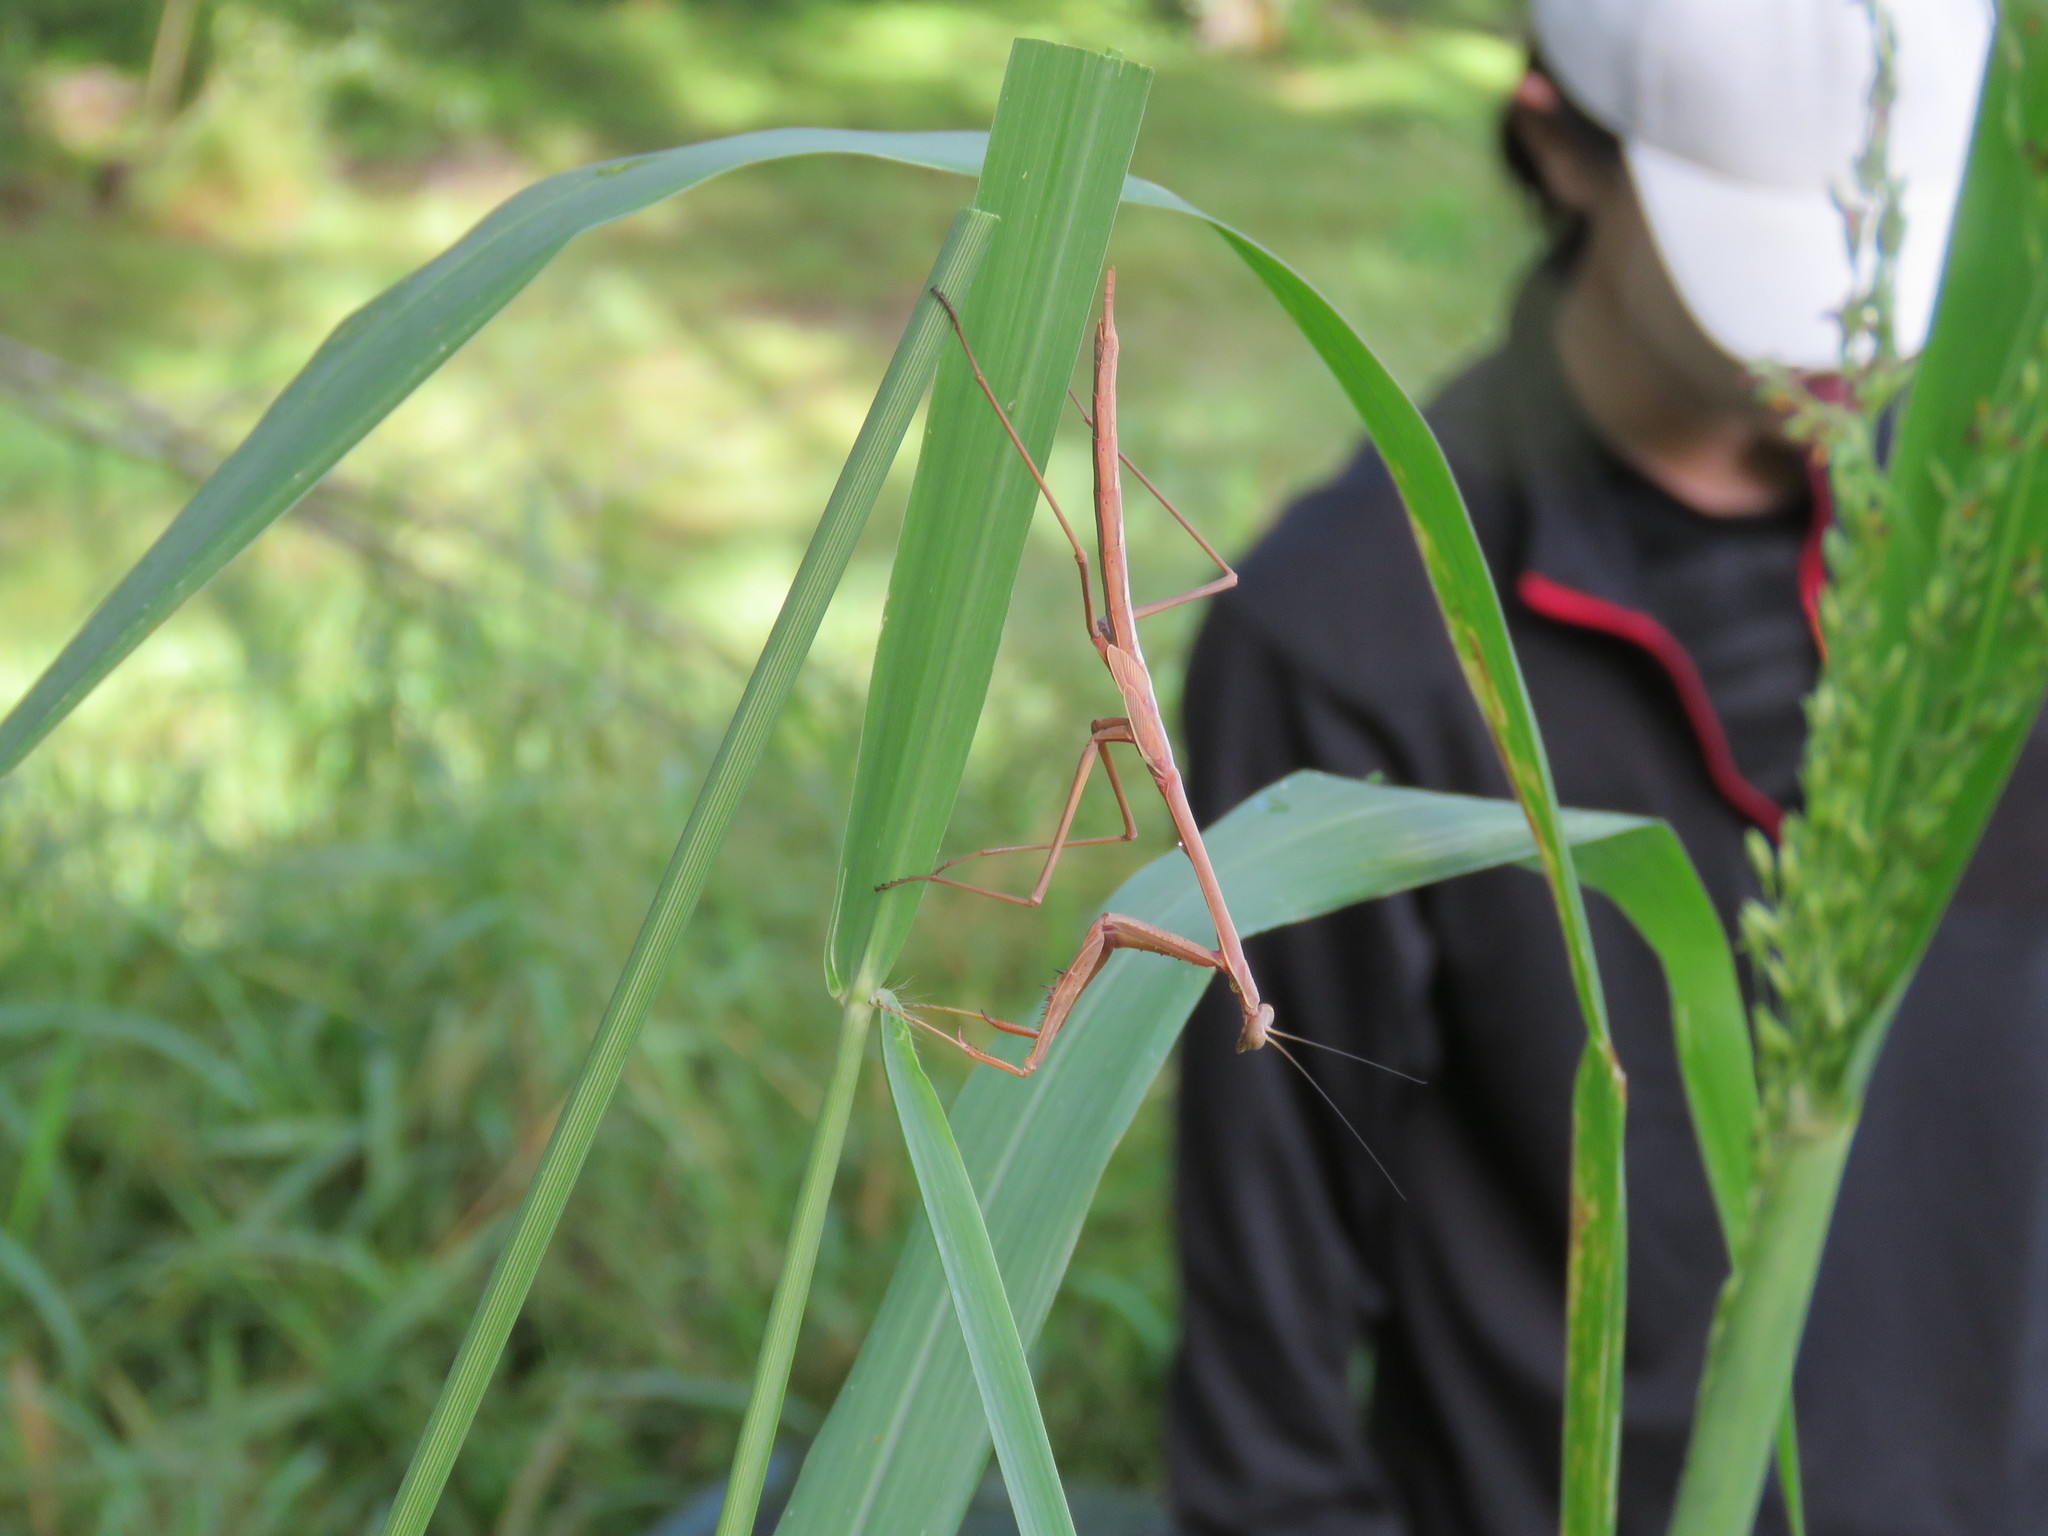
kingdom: Animalia
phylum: Arthropoda
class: Insecta
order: Mantodea
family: Mantidae
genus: Archimantis
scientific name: Archimantis latistyla
